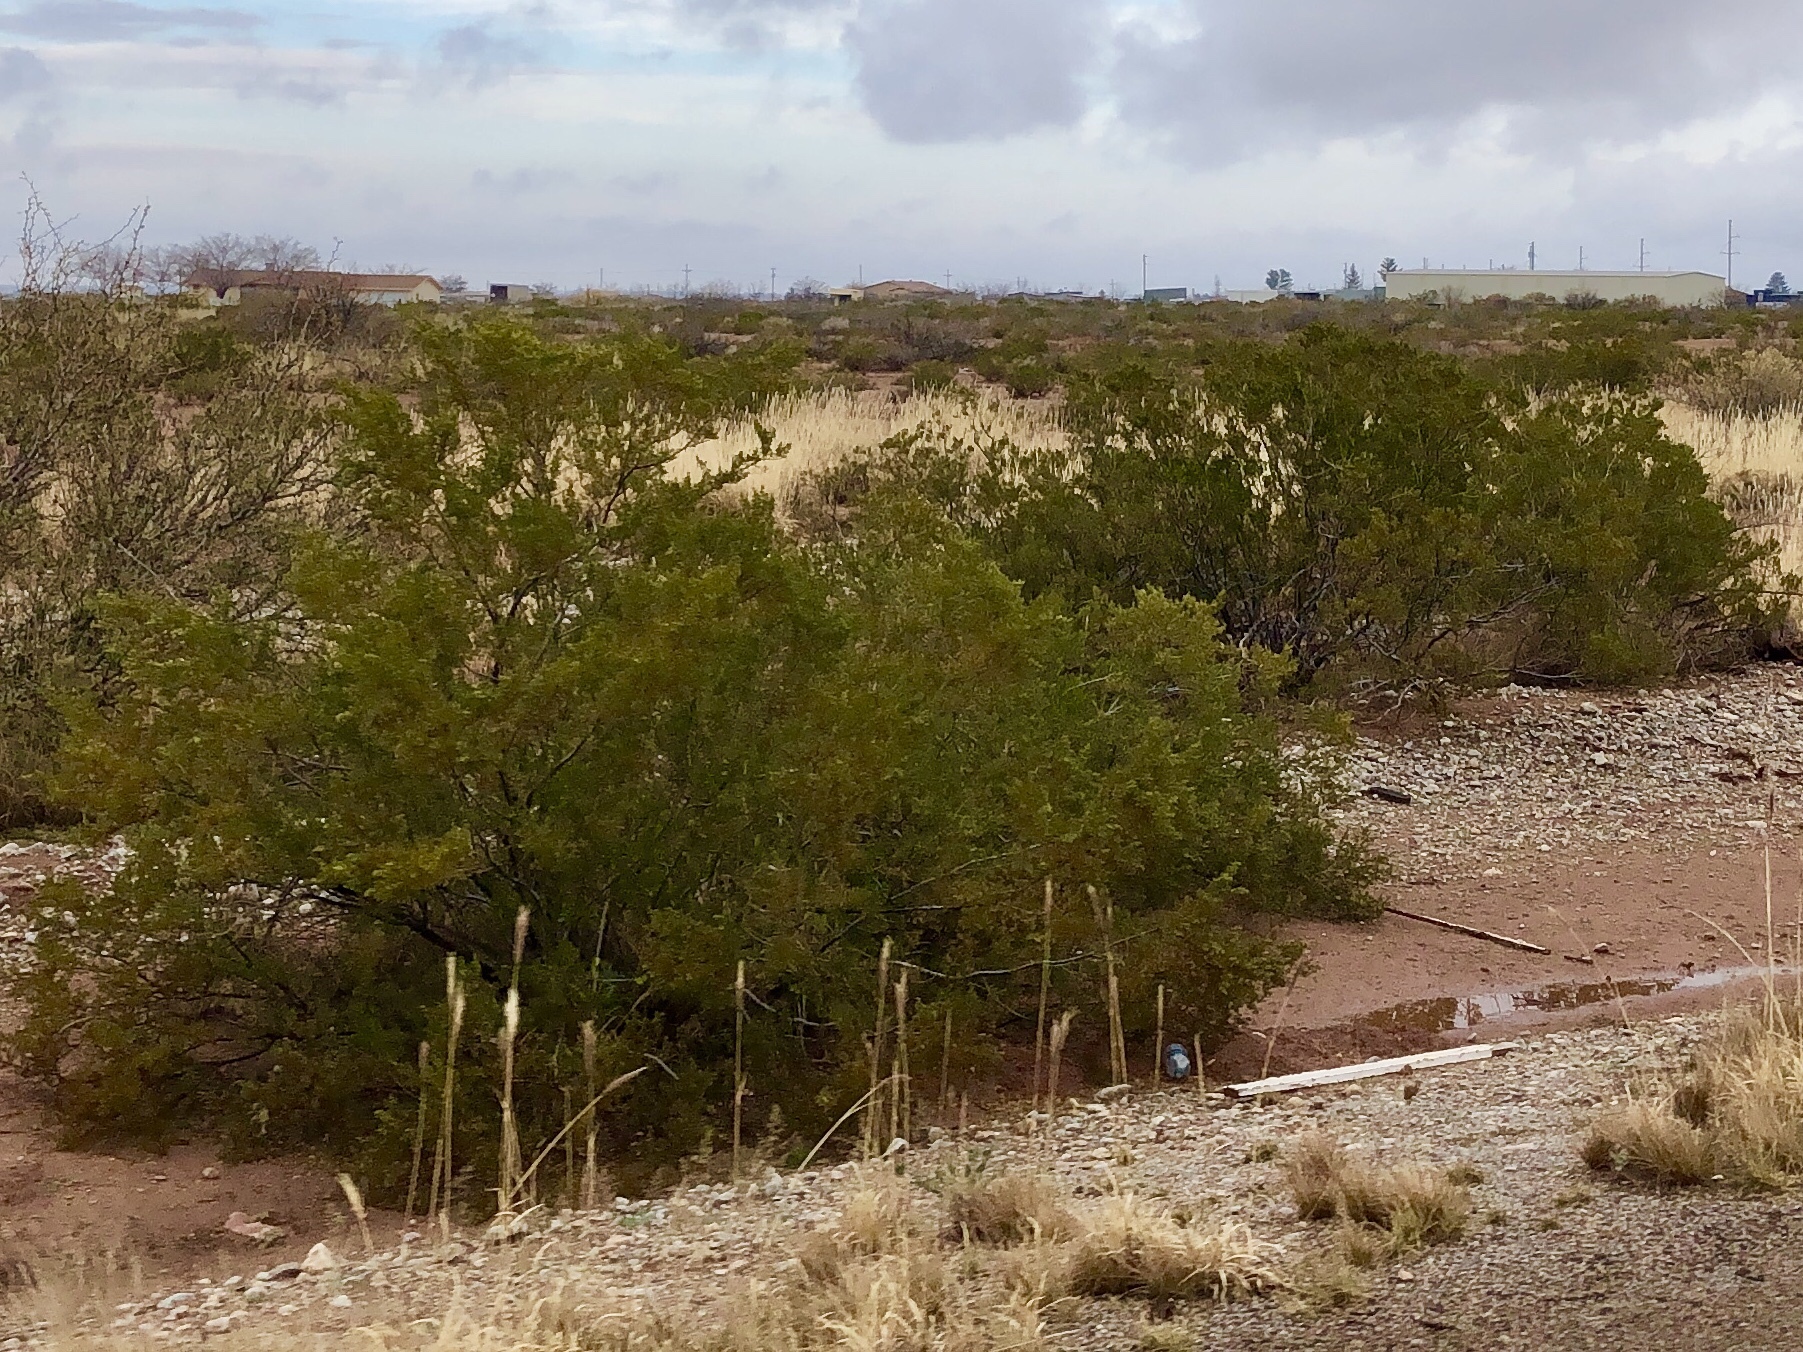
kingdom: Plantae
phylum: Tracheophyta
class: Magnoliopsida
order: Zygophyllales
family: Zygophyllaceae
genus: Larrea
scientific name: Larrea tridentata
